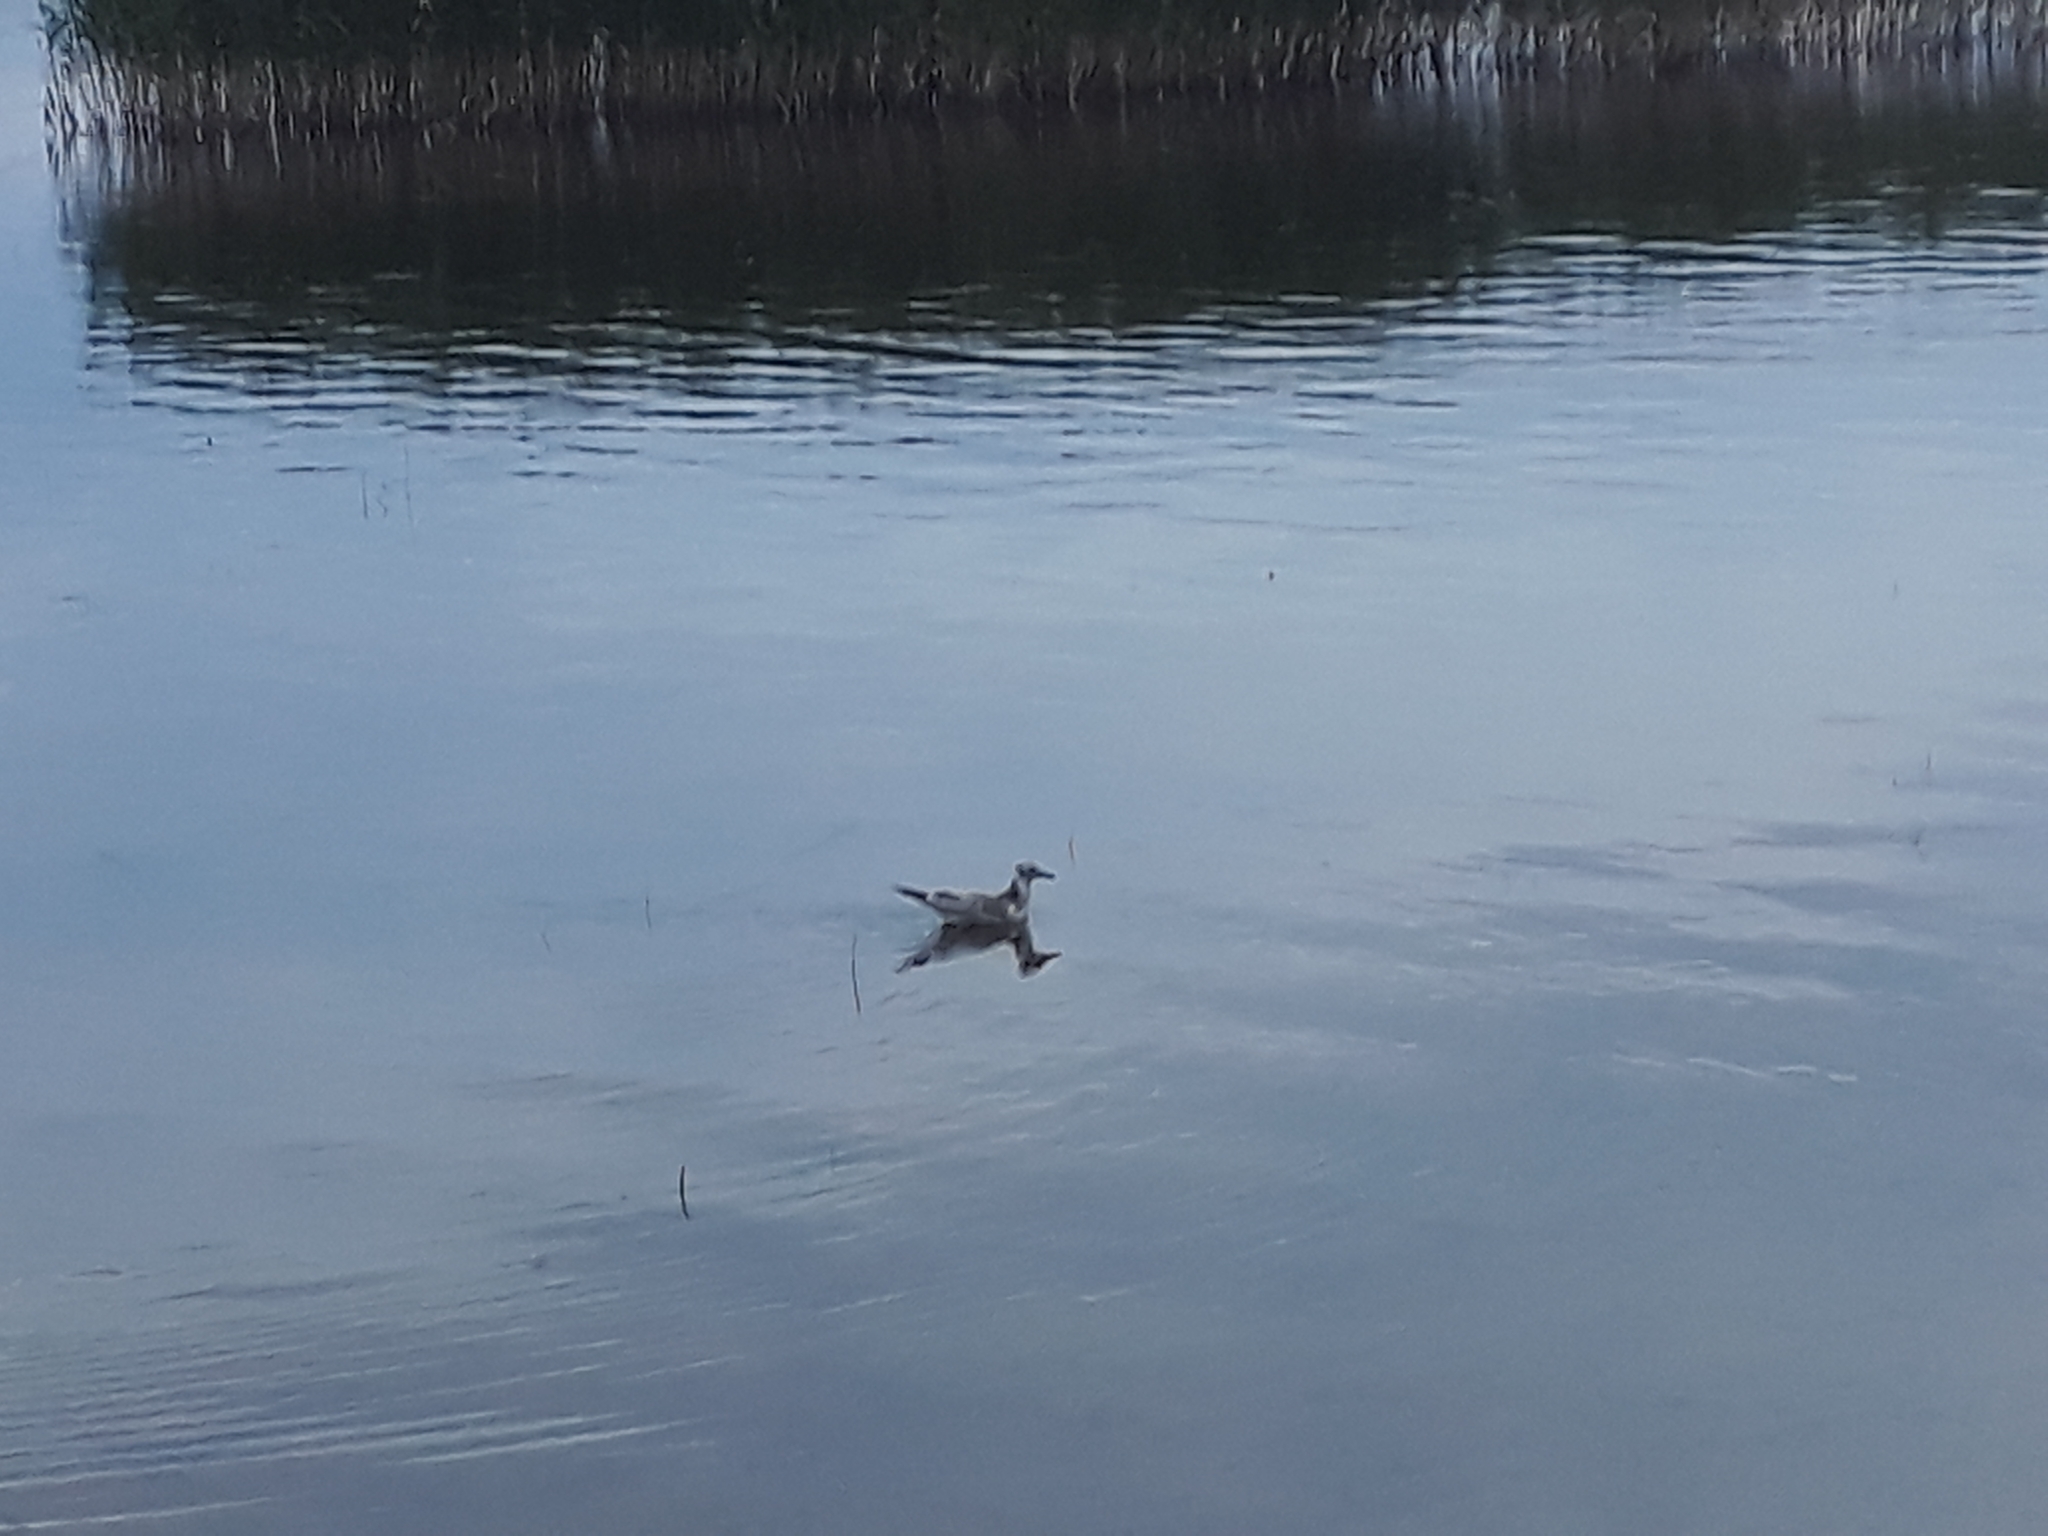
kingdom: Animalia
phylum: Chordata
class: Aves
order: Charadriiformes
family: Laridae
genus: Chroicocephalus
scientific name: Chroicocephalus ridibundus
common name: Black-headed gull
